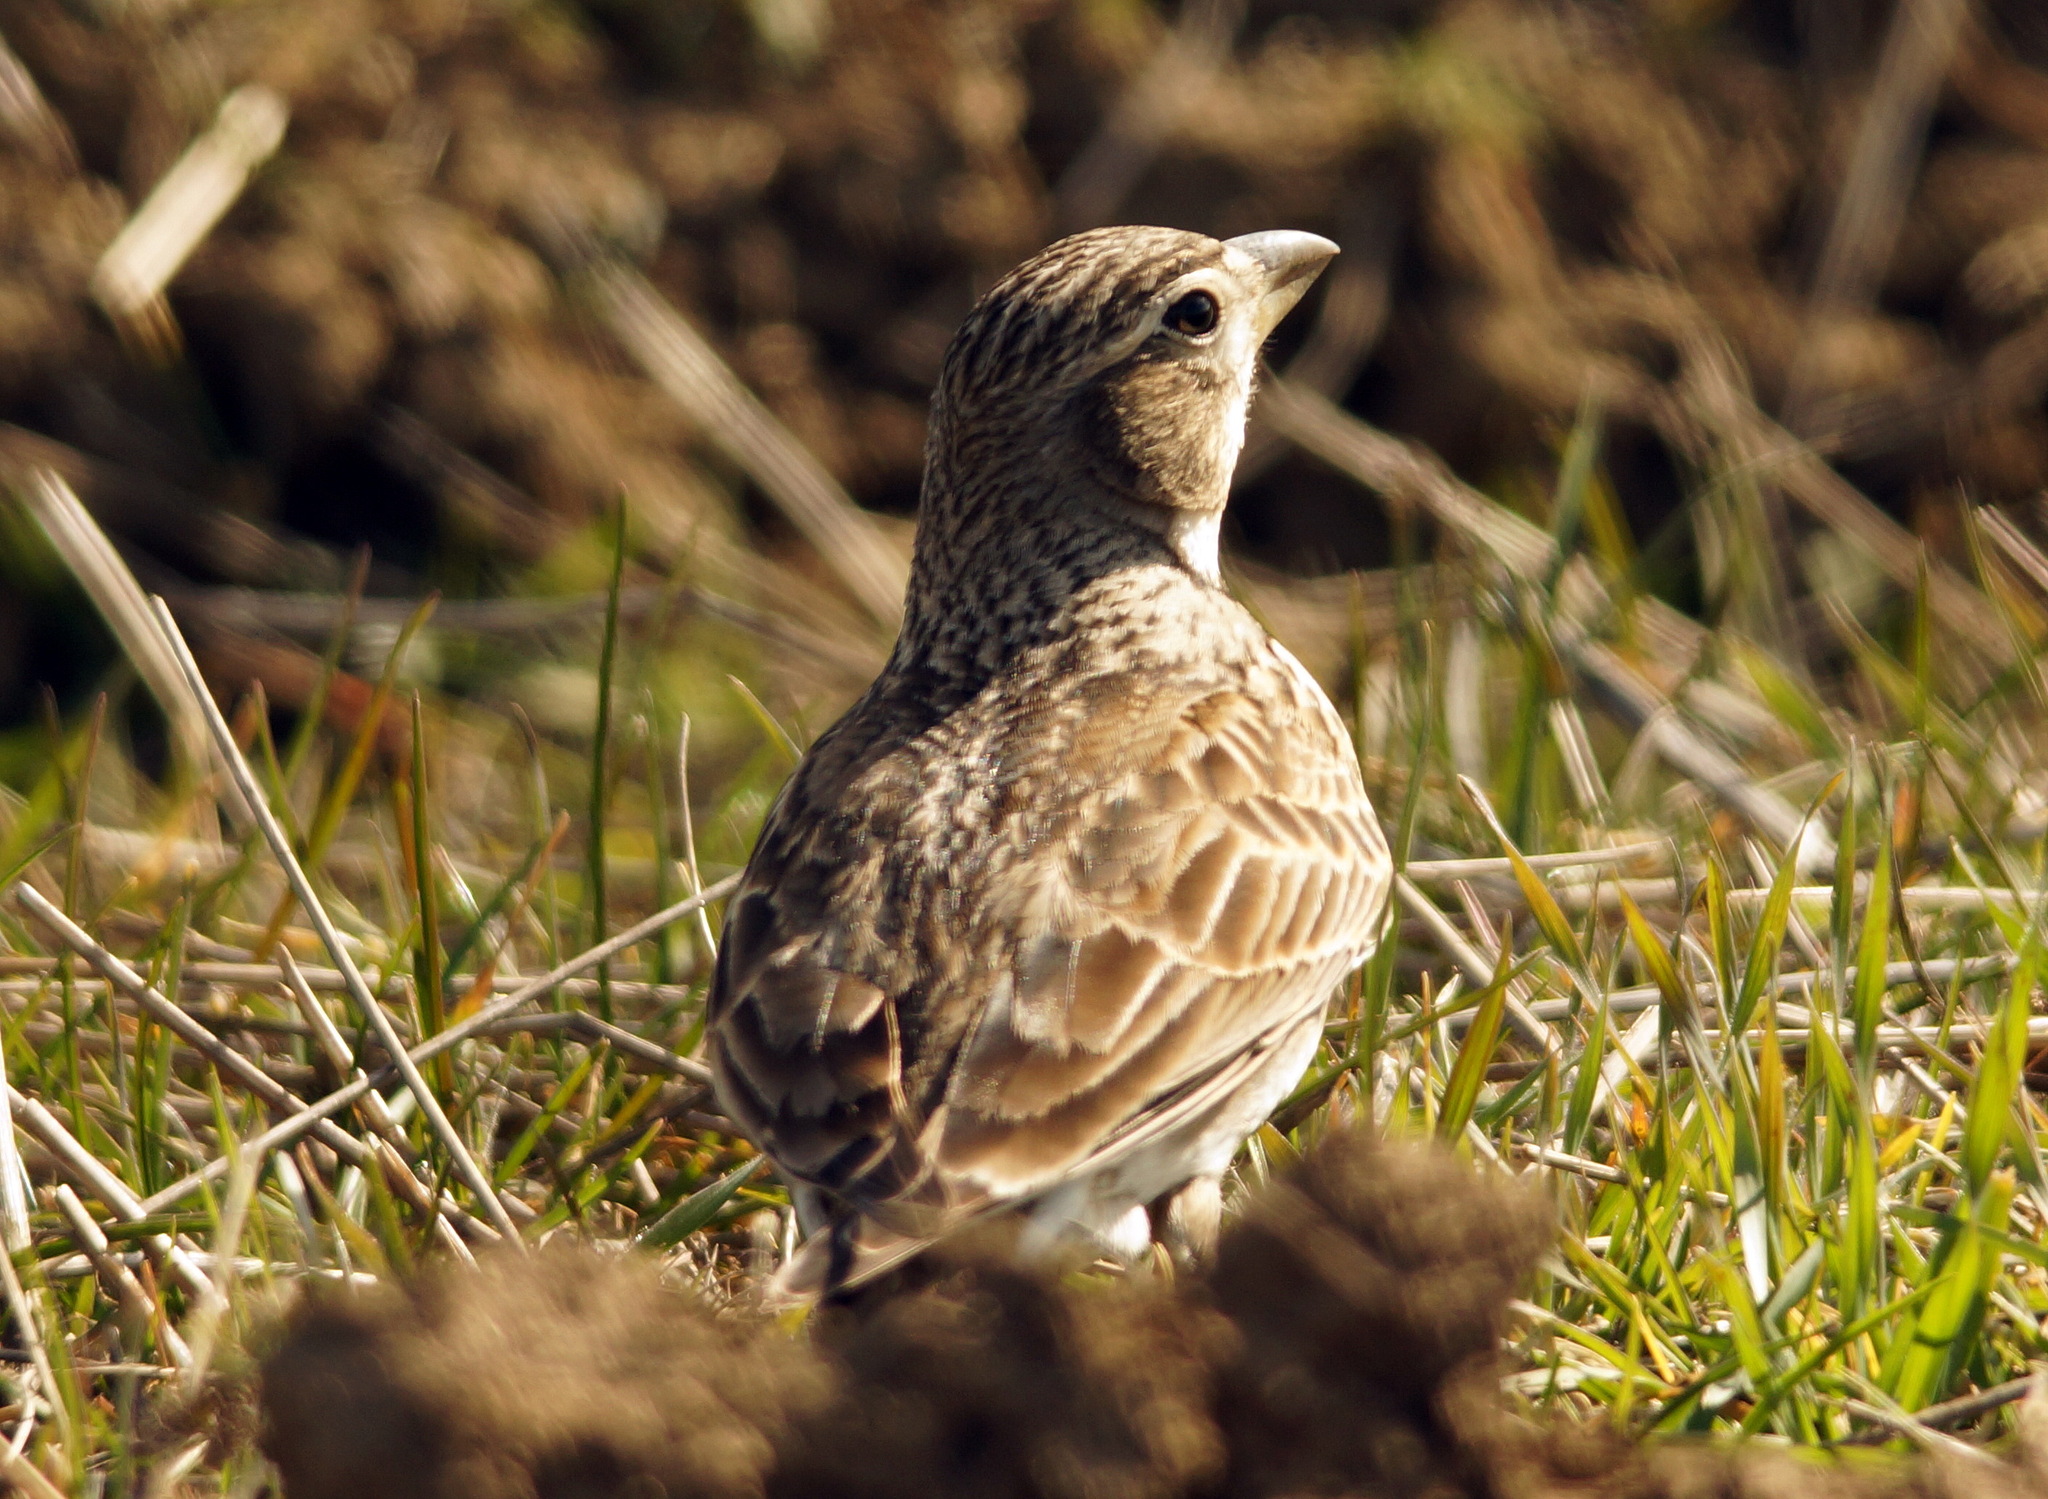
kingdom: Animalia
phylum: Chordata
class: Aves
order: Passeriformes
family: Alaudidae
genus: Melanocorypha
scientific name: Melanocorypha calandra
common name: Calandra lark
